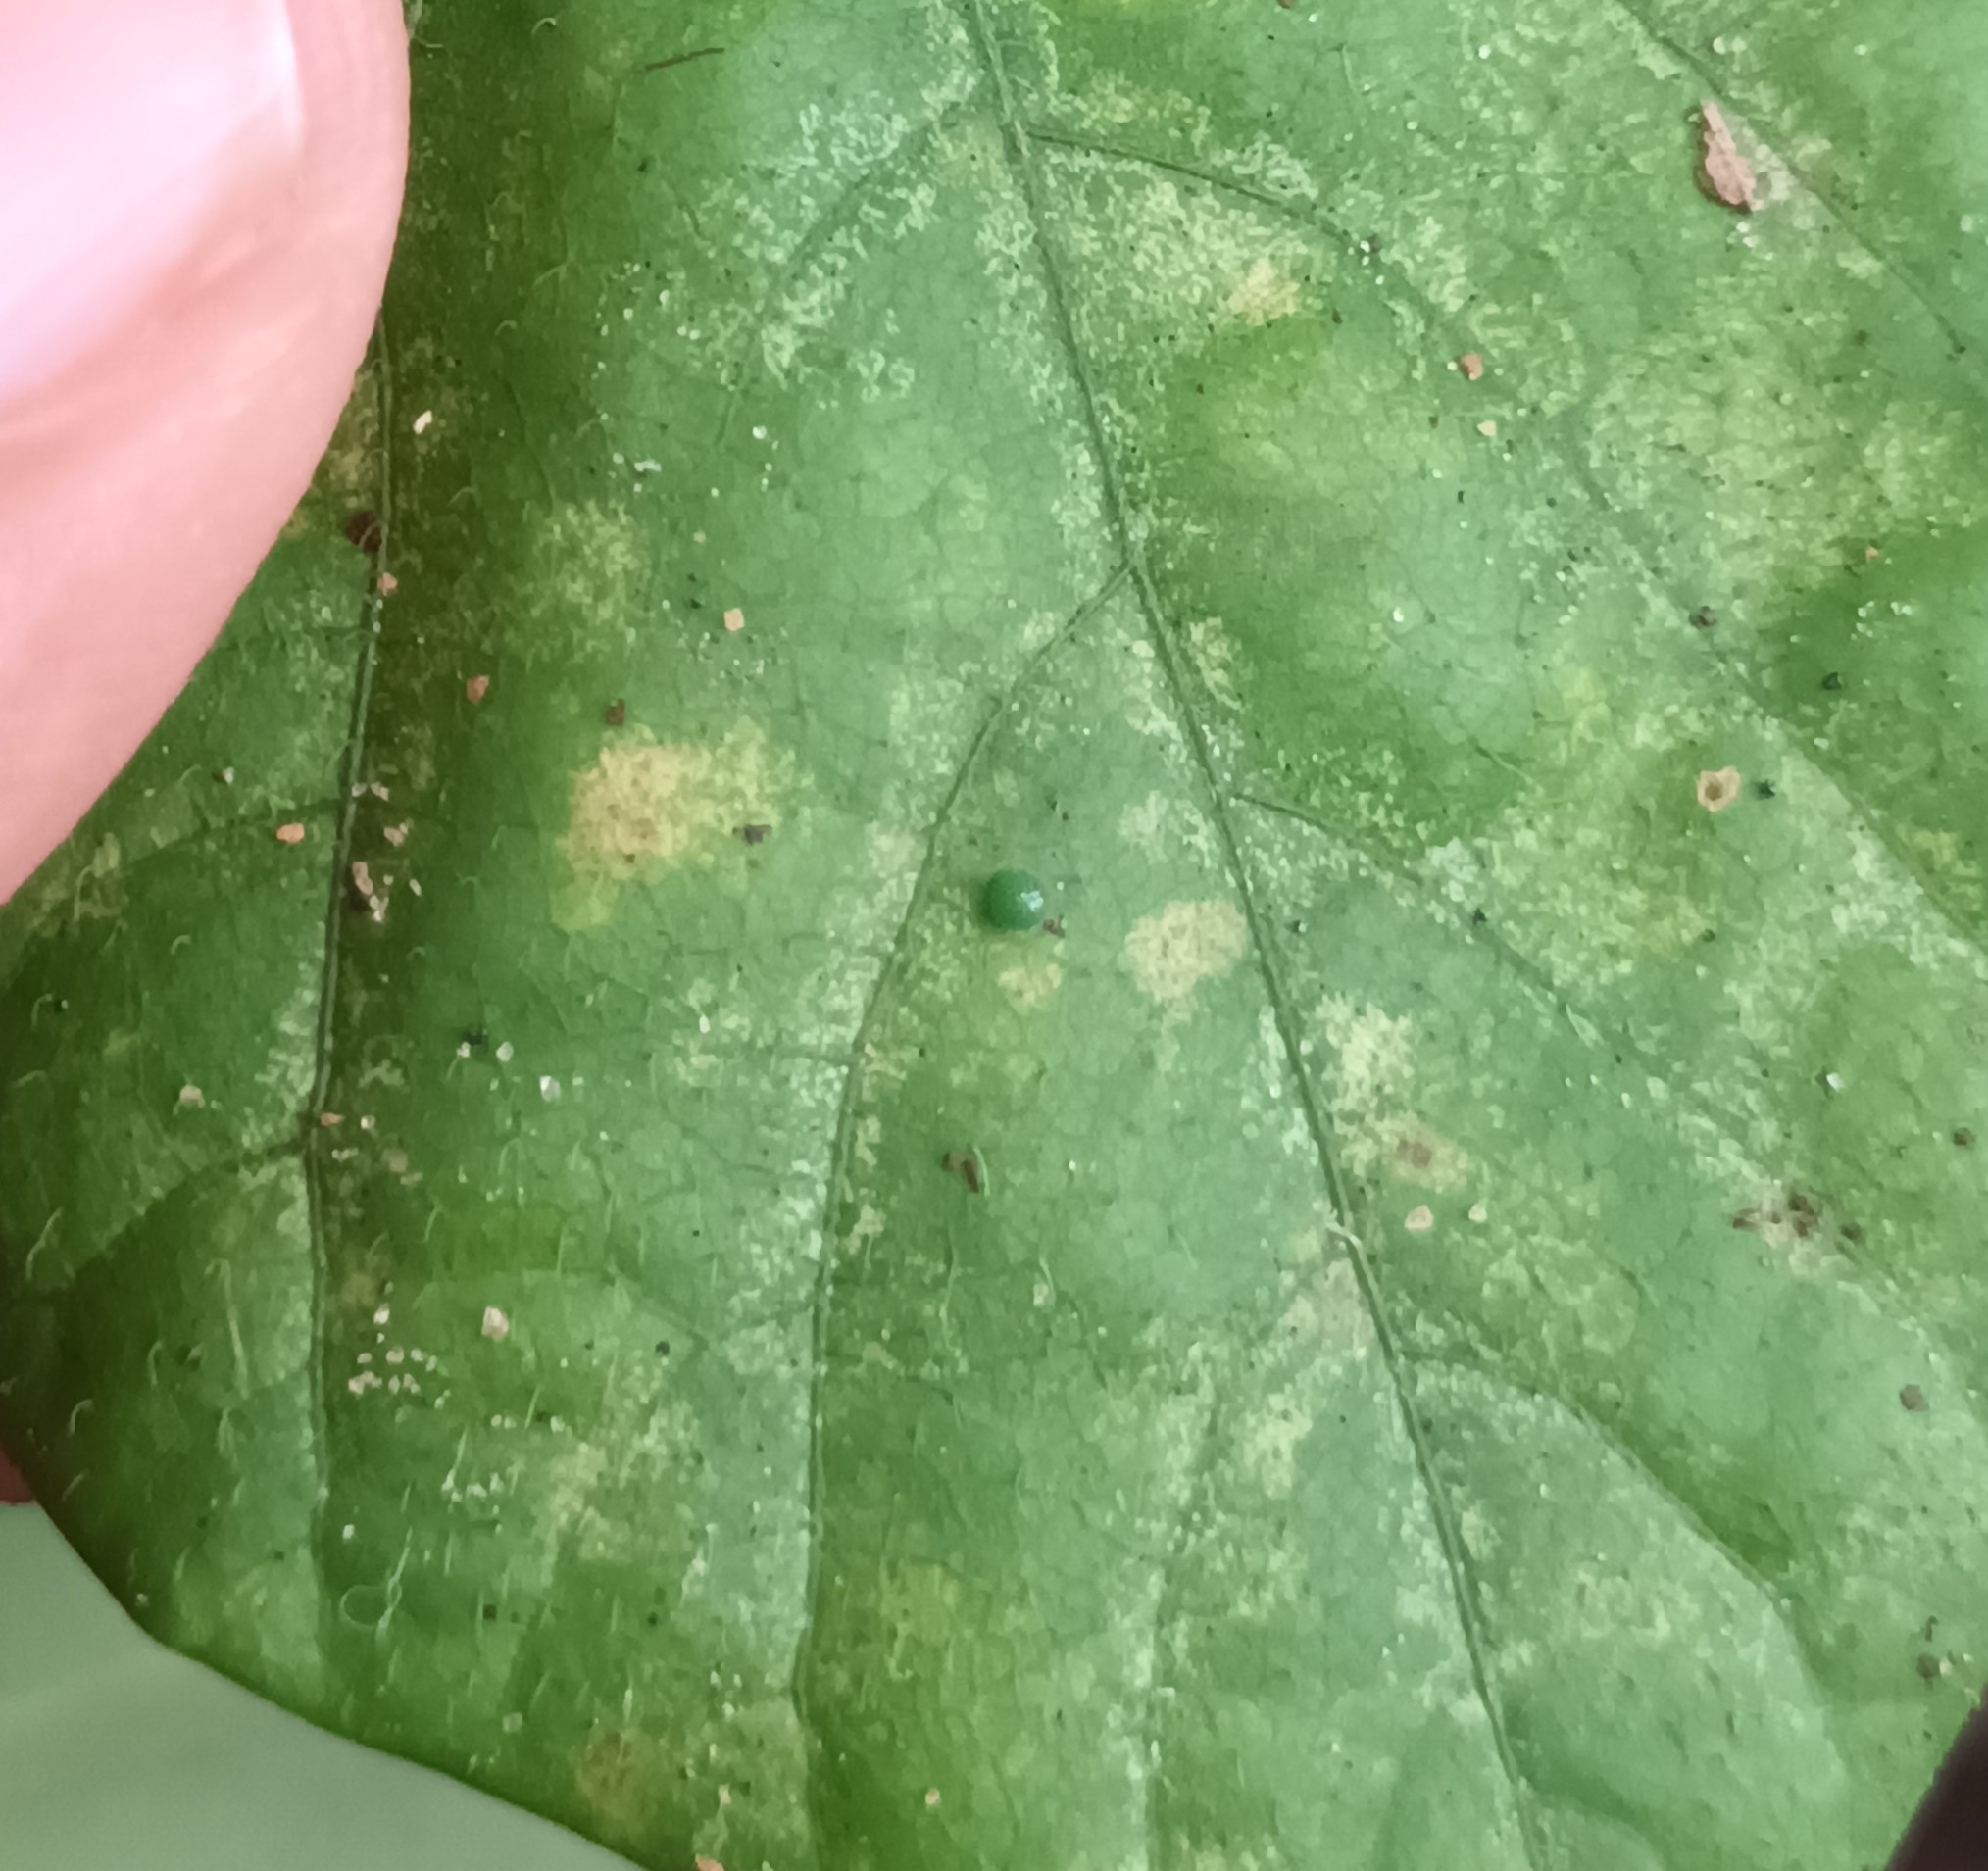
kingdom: Animalia
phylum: Arthropoda
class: Insecta
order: Lepidoptera
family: Nymphalidae
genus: Neptis
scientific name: Neptis hylas
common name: Common sailer
